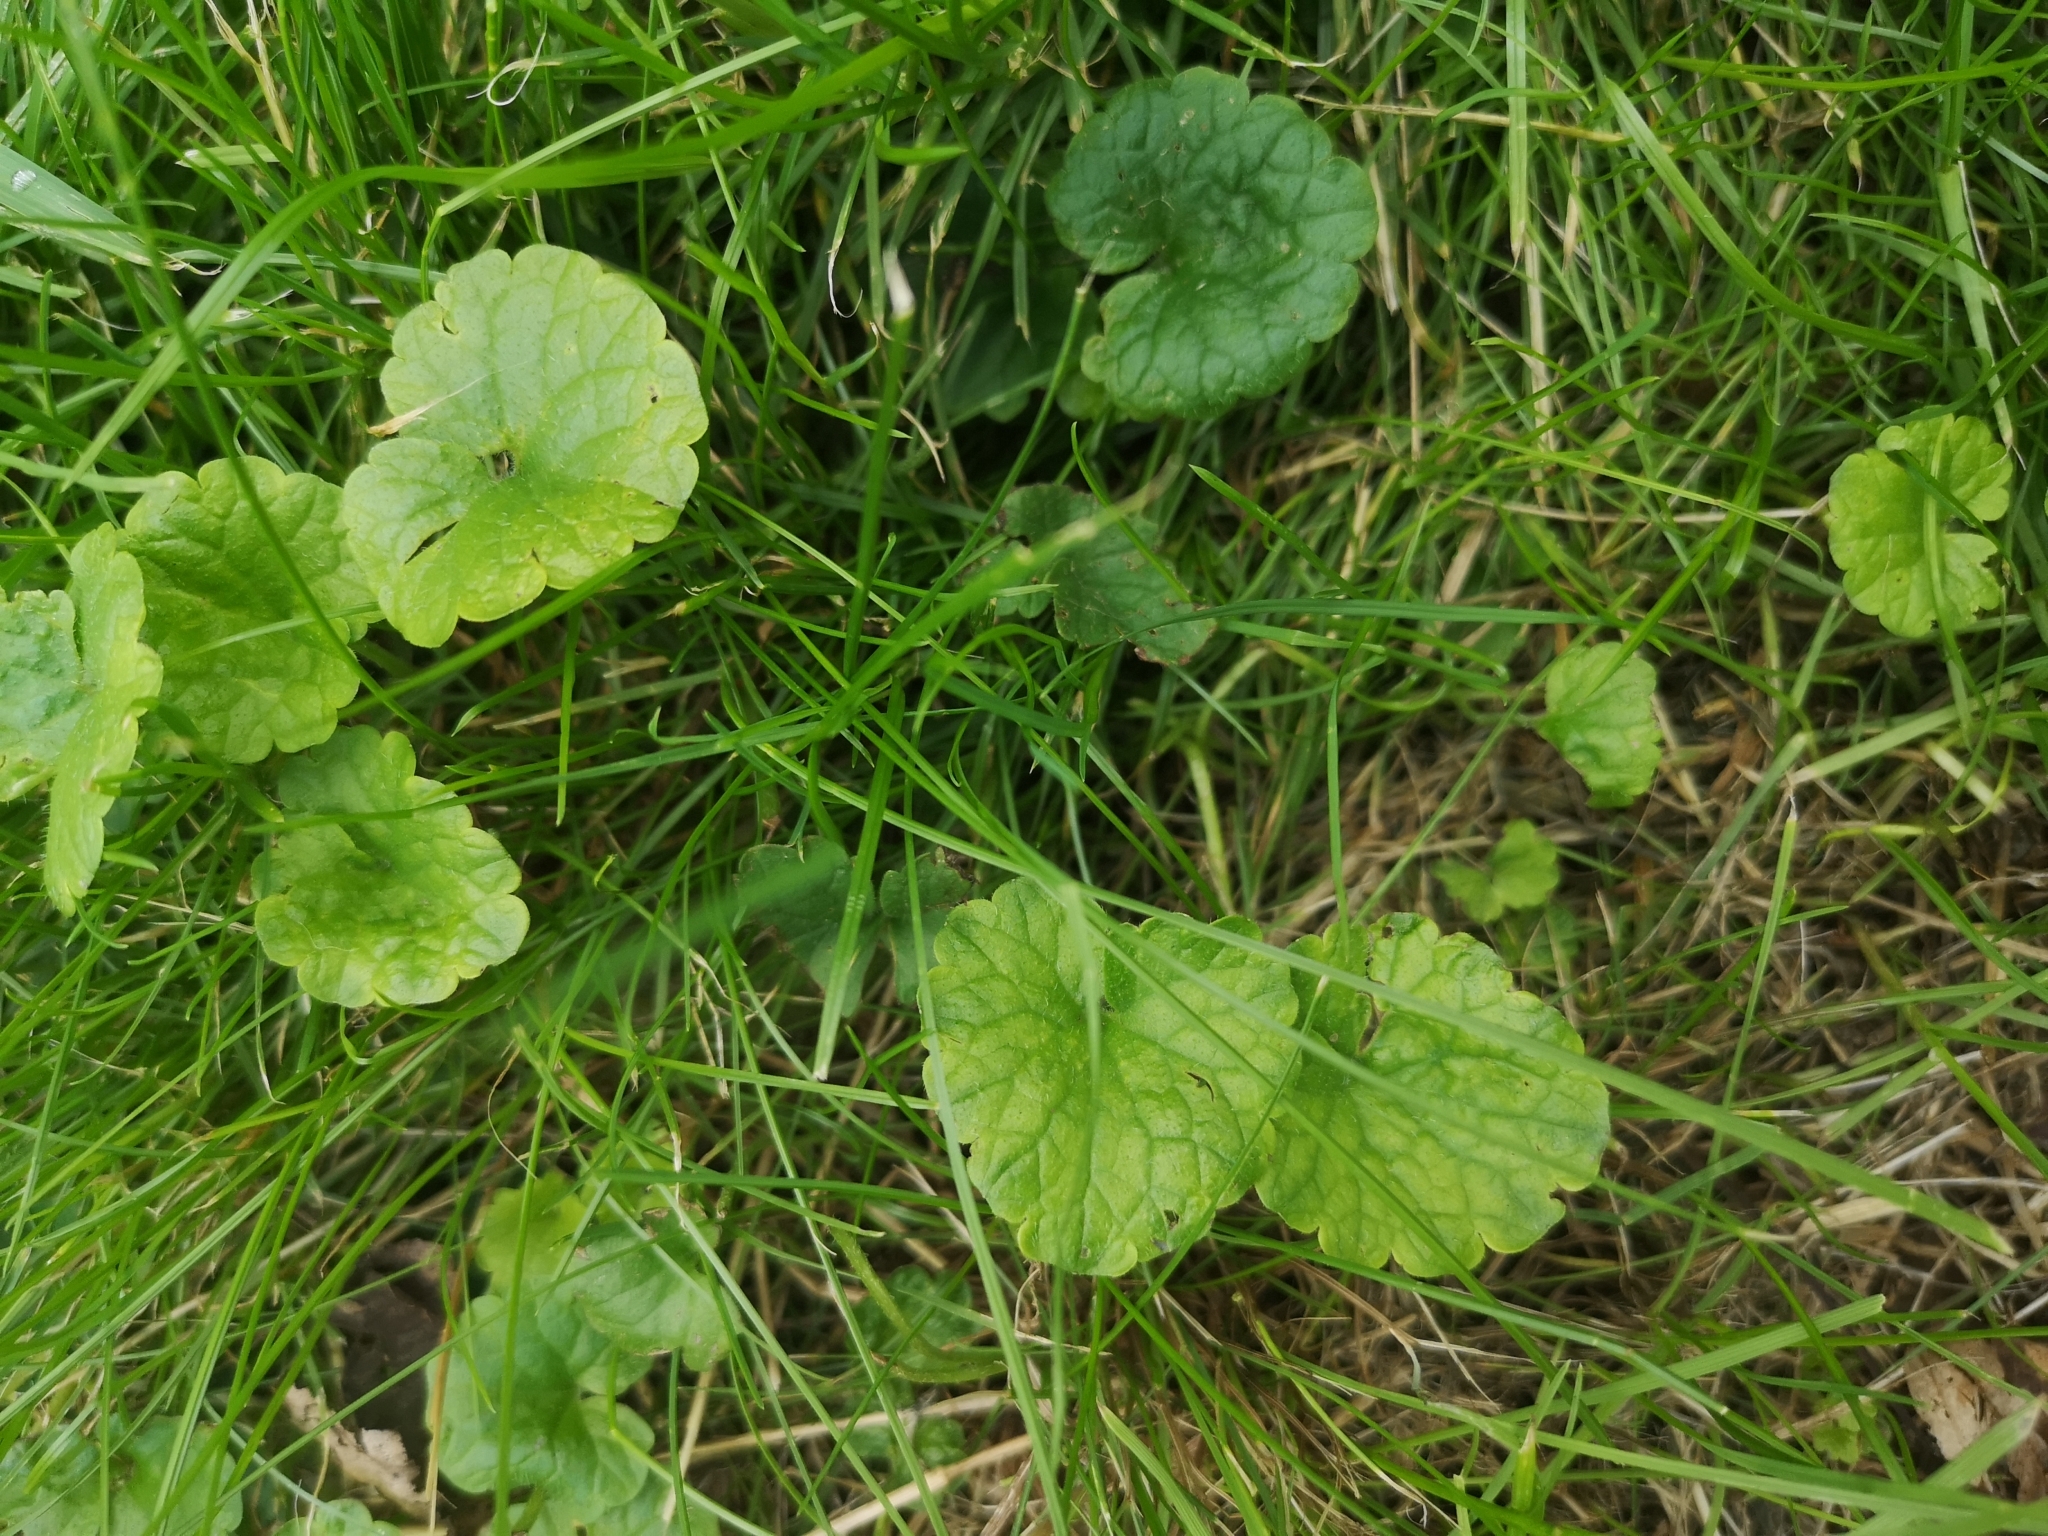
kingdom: Plantae
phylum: Tracheophyta
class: Magnoliopsida
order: Lamiales
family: Lamiaceae
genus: Glechoma
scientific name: Glechoma hederacea
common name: Ground ivy
